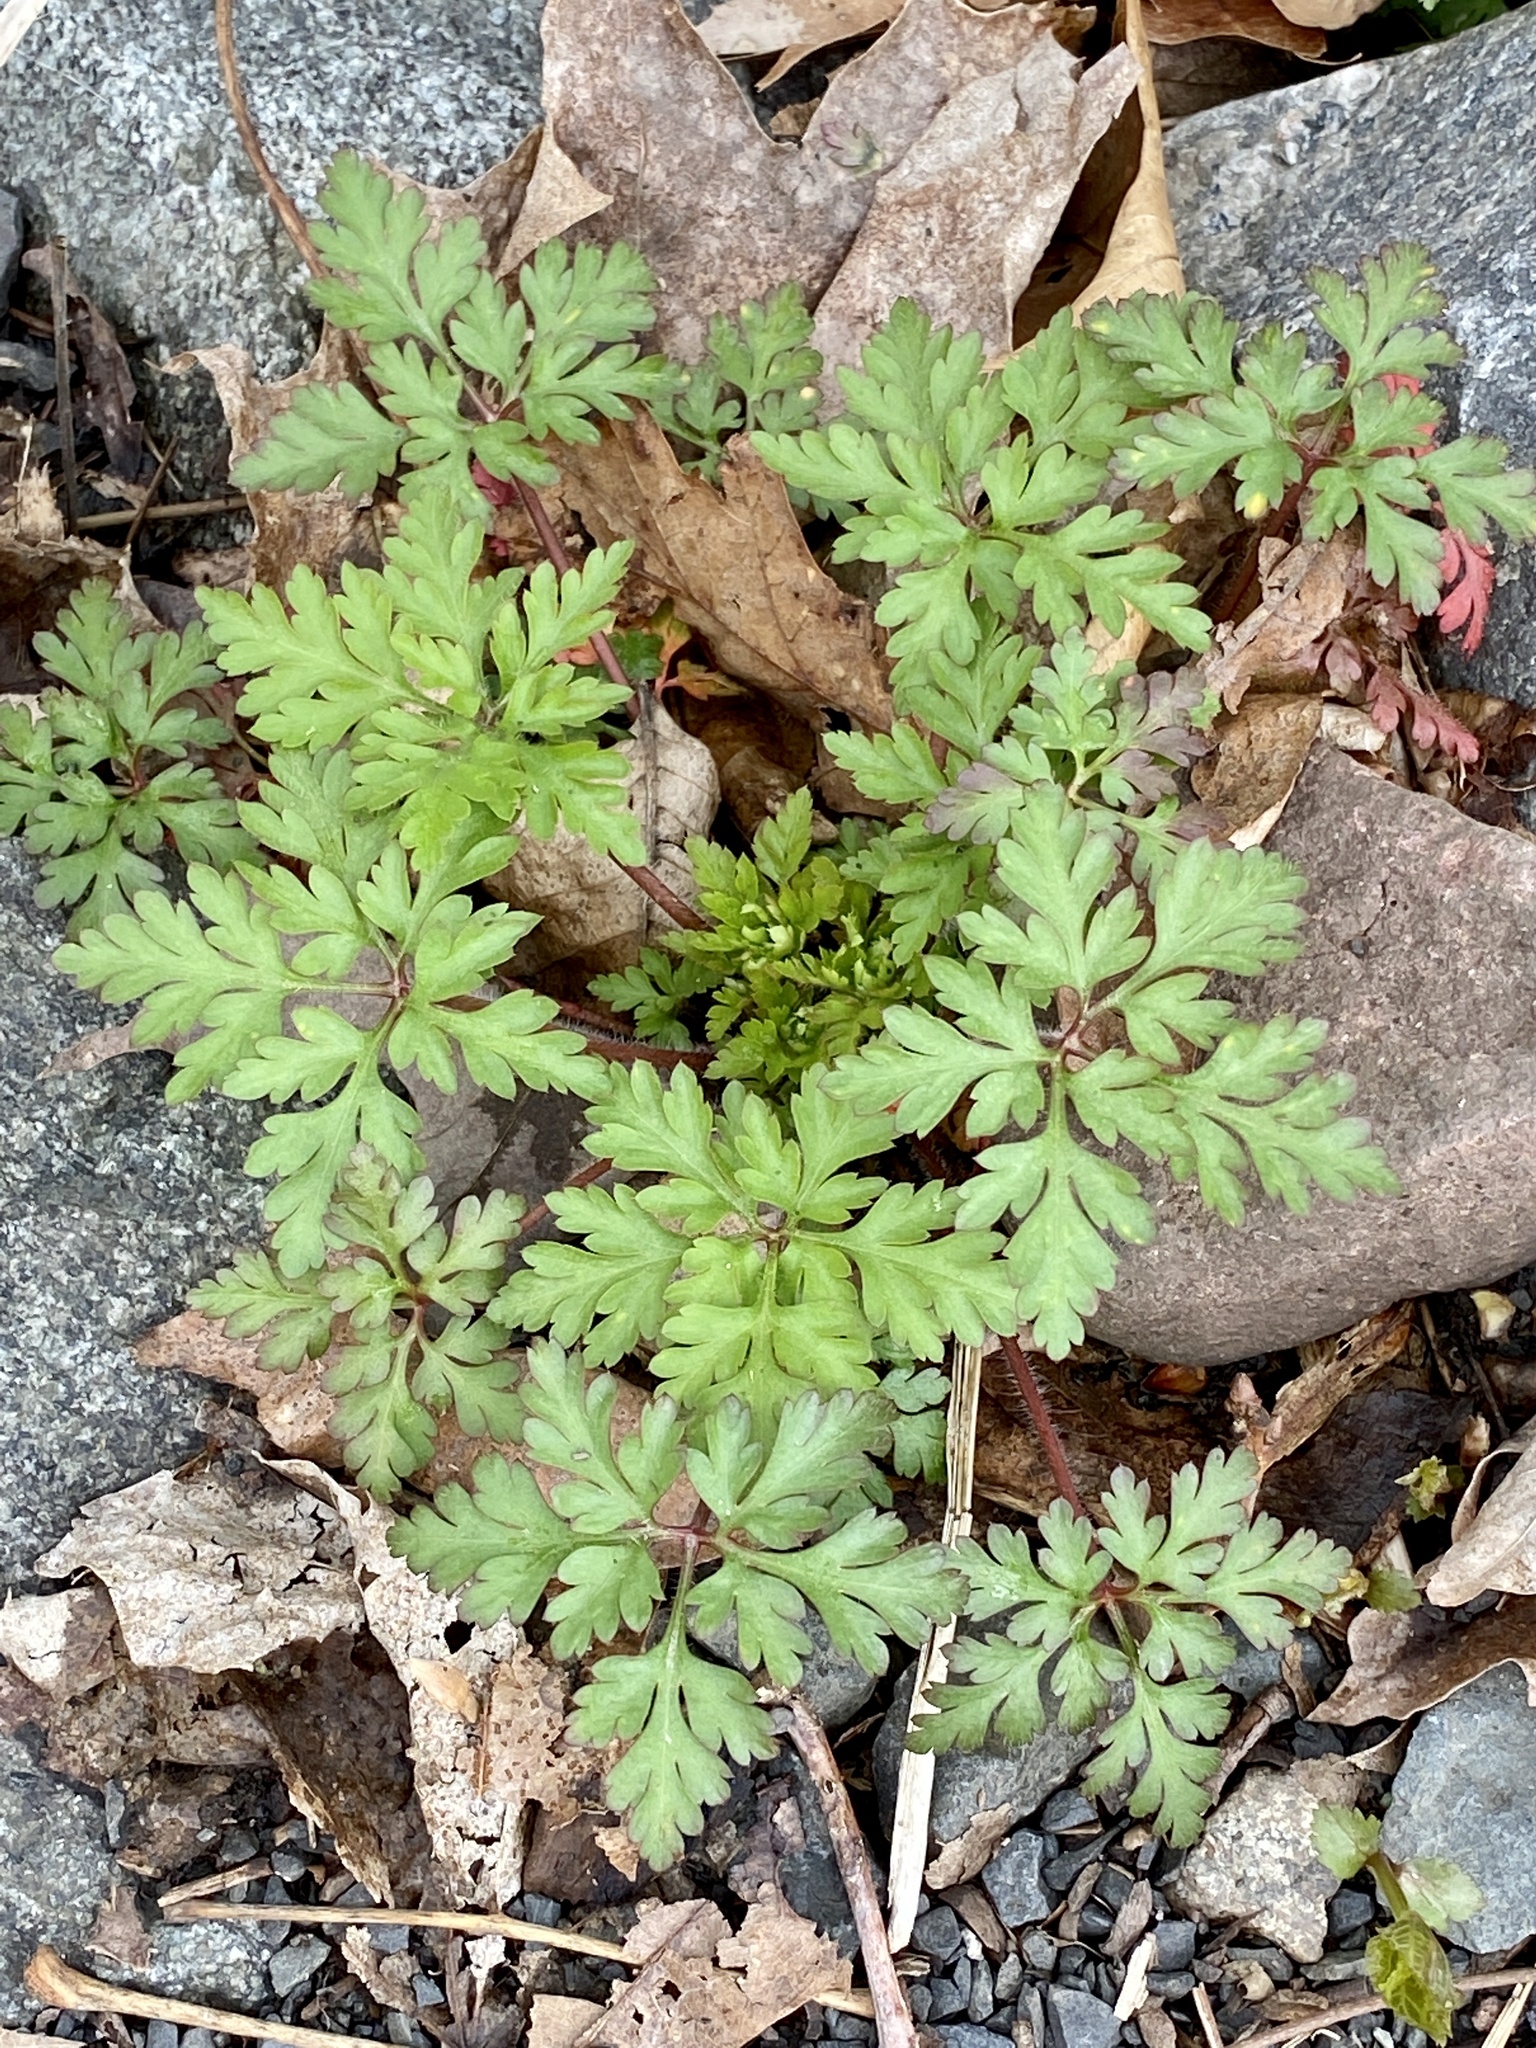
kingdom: Plantae
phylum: Tracheophyta
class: Magnoliopsida
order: Geraniales
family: Geraniaceae
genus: Geranium
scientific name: Geranium robertianum
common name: Herb-robert
